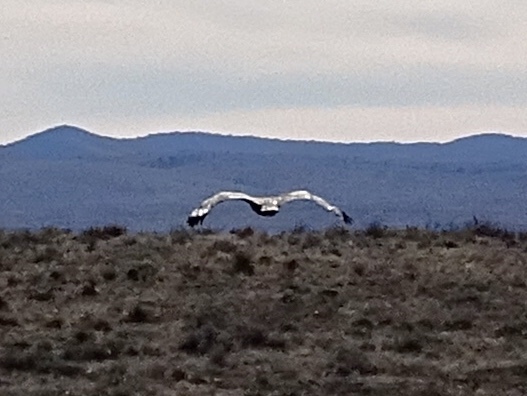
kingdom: Animalia
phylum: Chordata
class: Aves
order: Accipitriformes
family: Accipitridae
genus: Aquila
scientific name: Aquila chrysaetos
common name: Golden eagle
